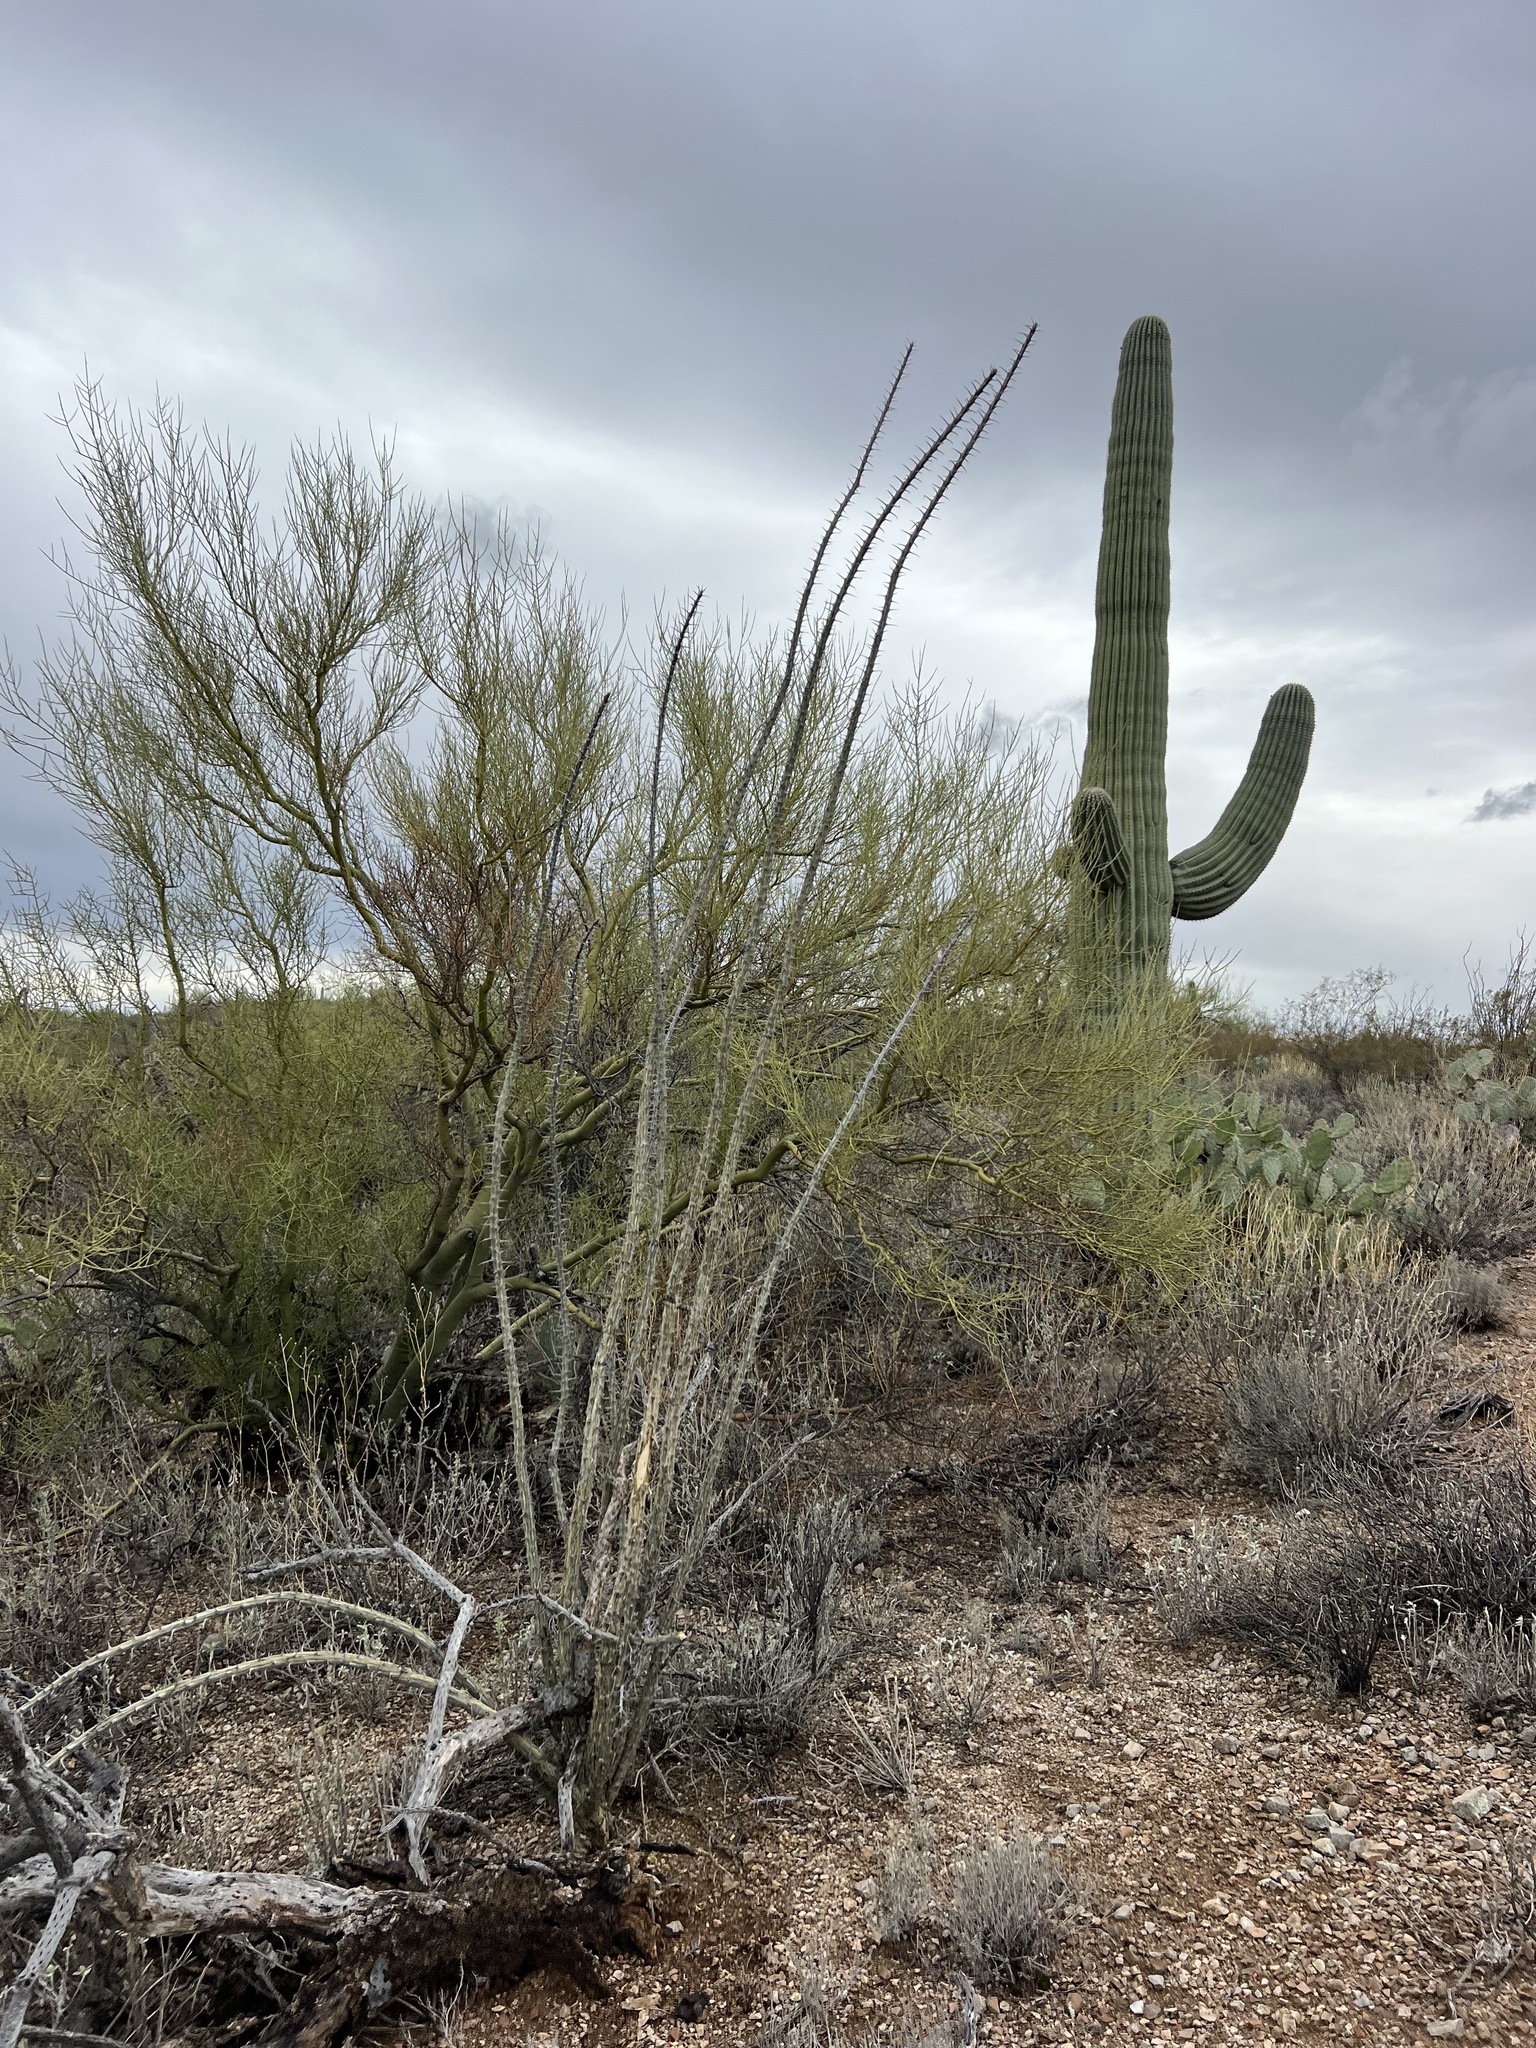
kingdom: Plantae
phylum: Tracheophyta
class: Magnoliopsida
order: Ericales
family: Fouquieriaceae
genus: Fouquieria
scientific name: Fouquieria splendens
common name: Vine-cactus
